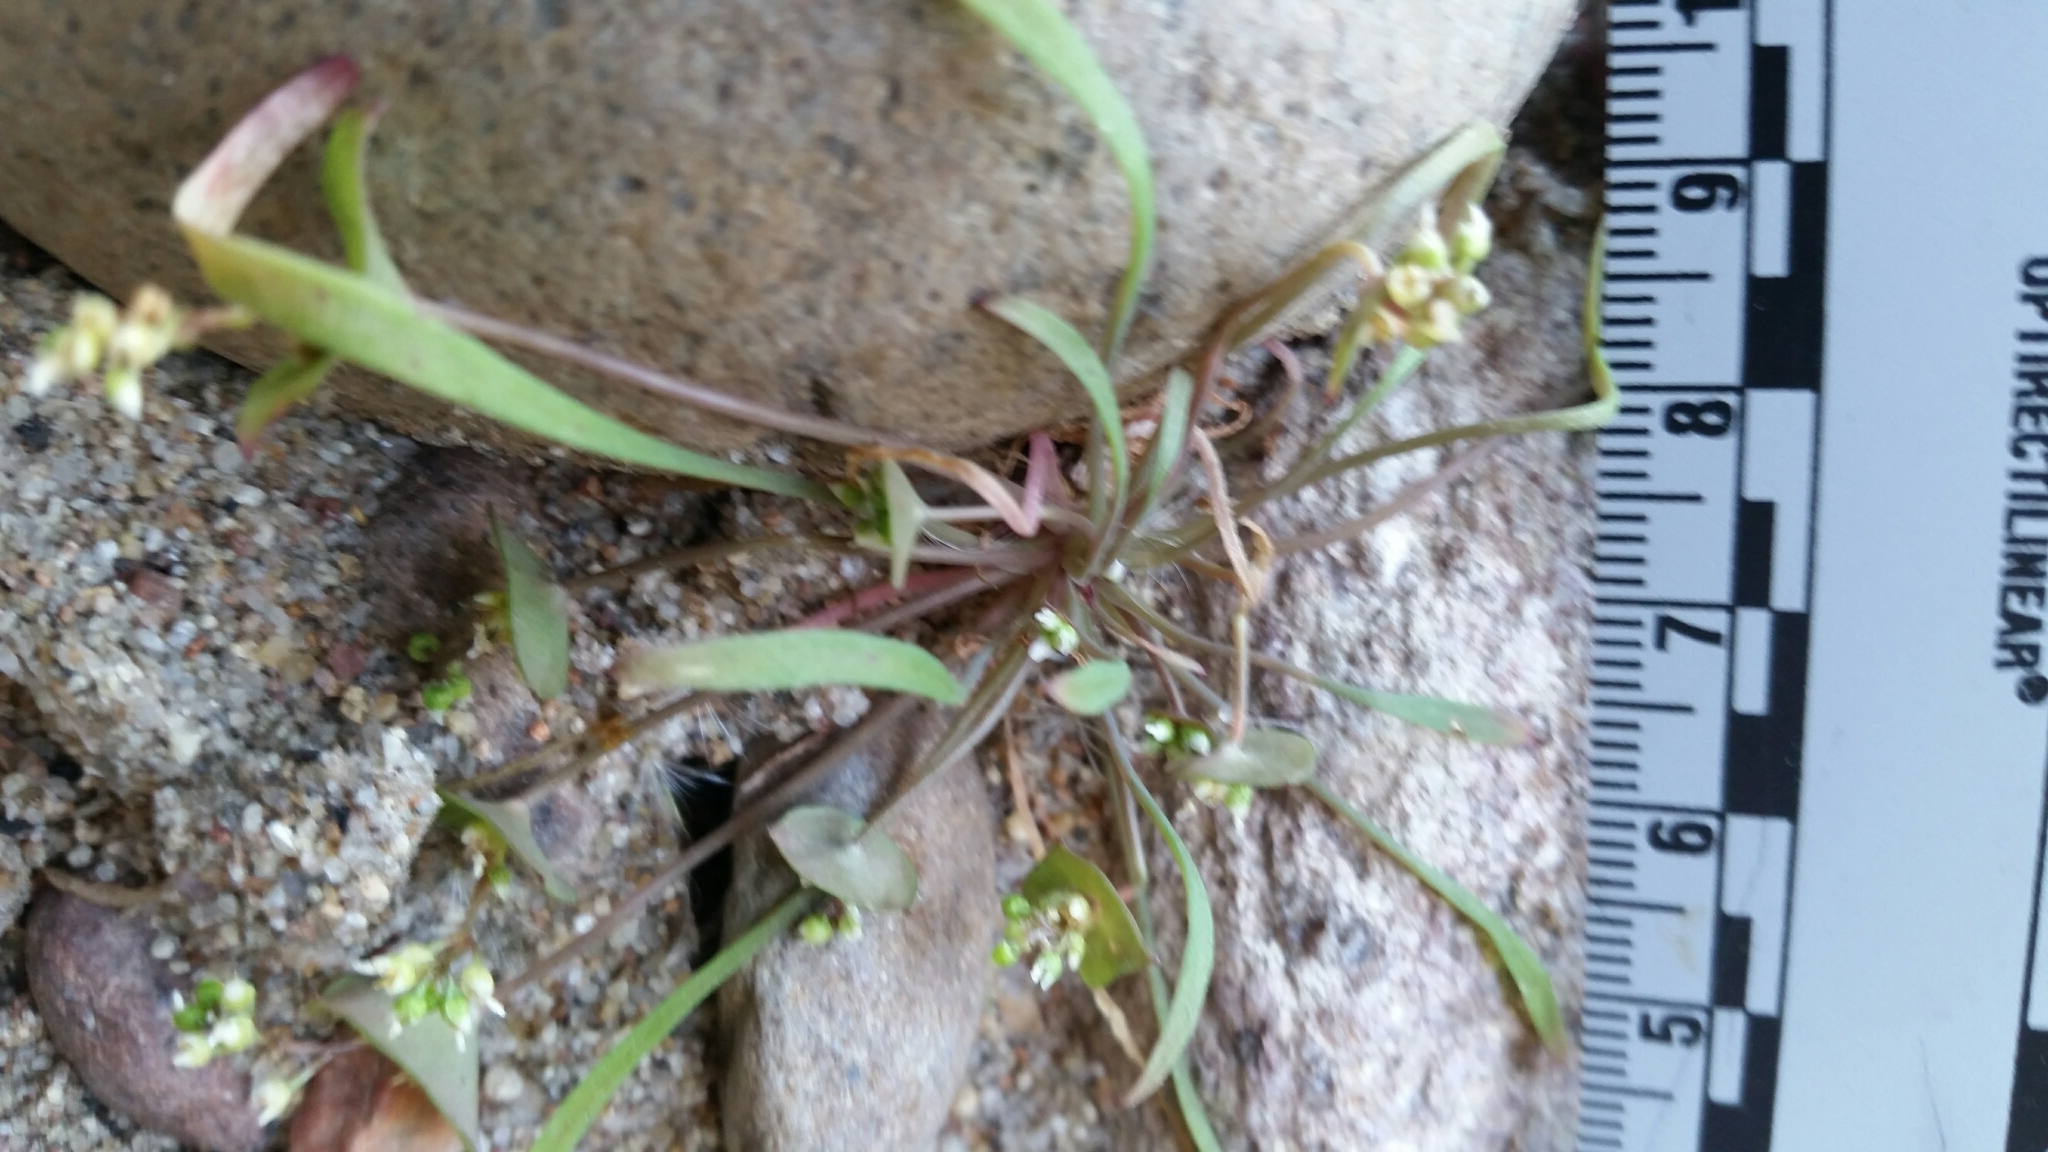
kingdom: Plantae
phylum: Tracheophyta
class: Magnoliopsida
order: Caryophyllales
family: Montiaceae
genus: Claytonia
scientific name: Claytonia parviflora
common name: Indian-lettuce
